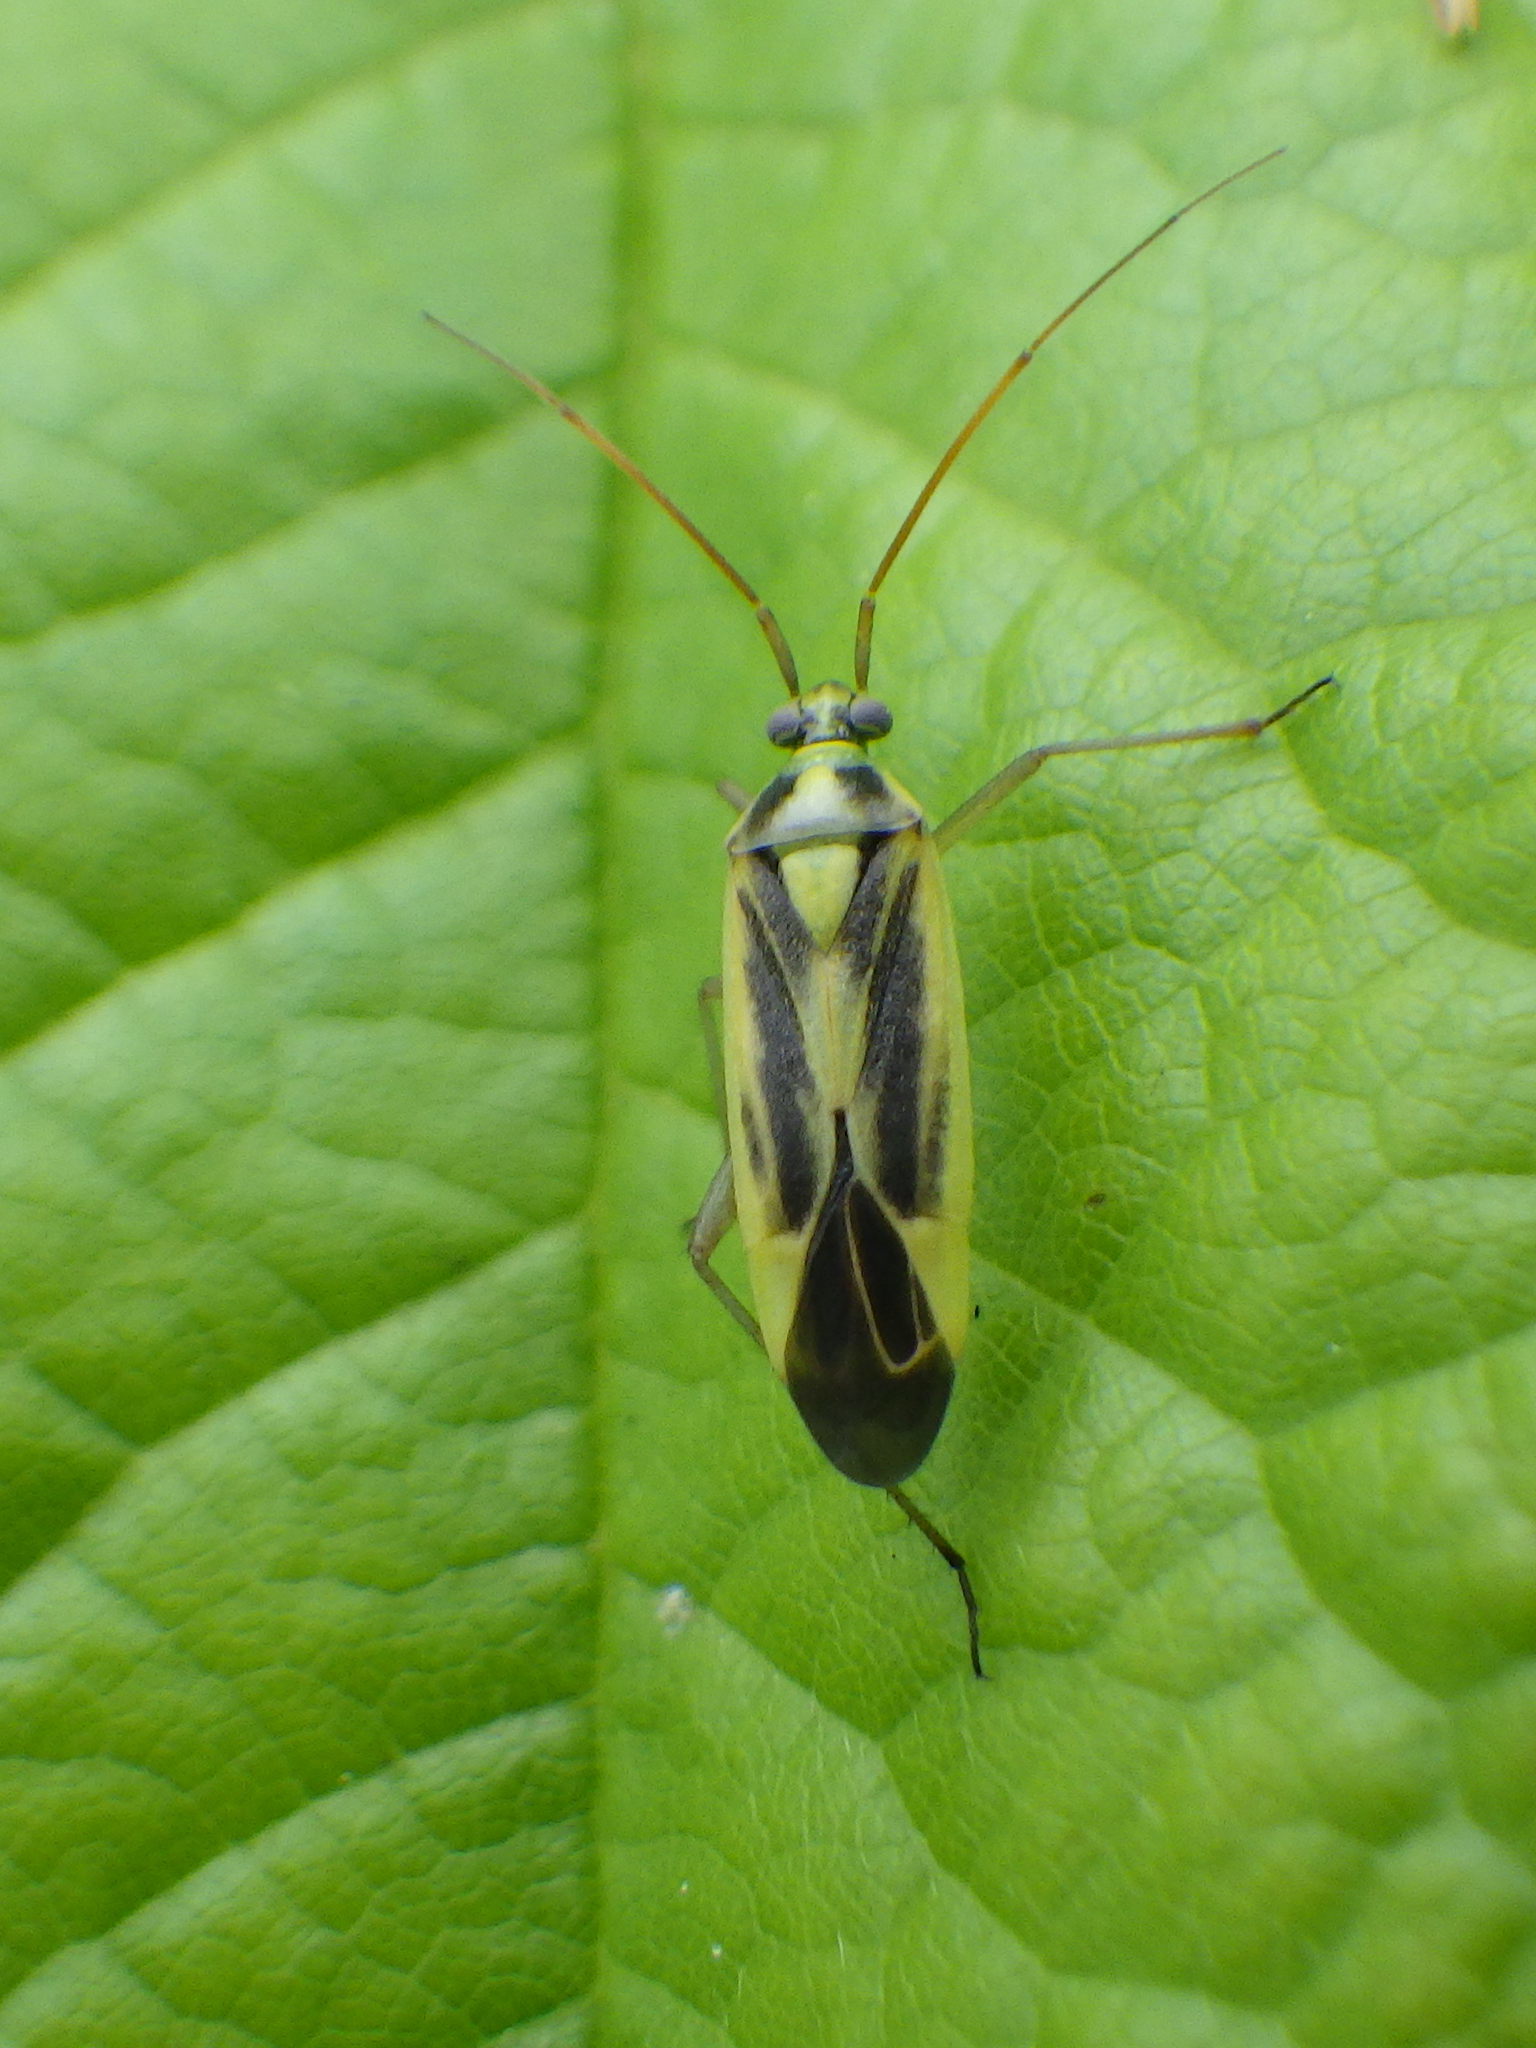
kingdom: Animalia
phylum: Arthropoda
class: Insecta
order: Hemiptera
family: Miridae
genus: Stenotus
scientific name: Stenotus binotatus
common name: Plant bug
